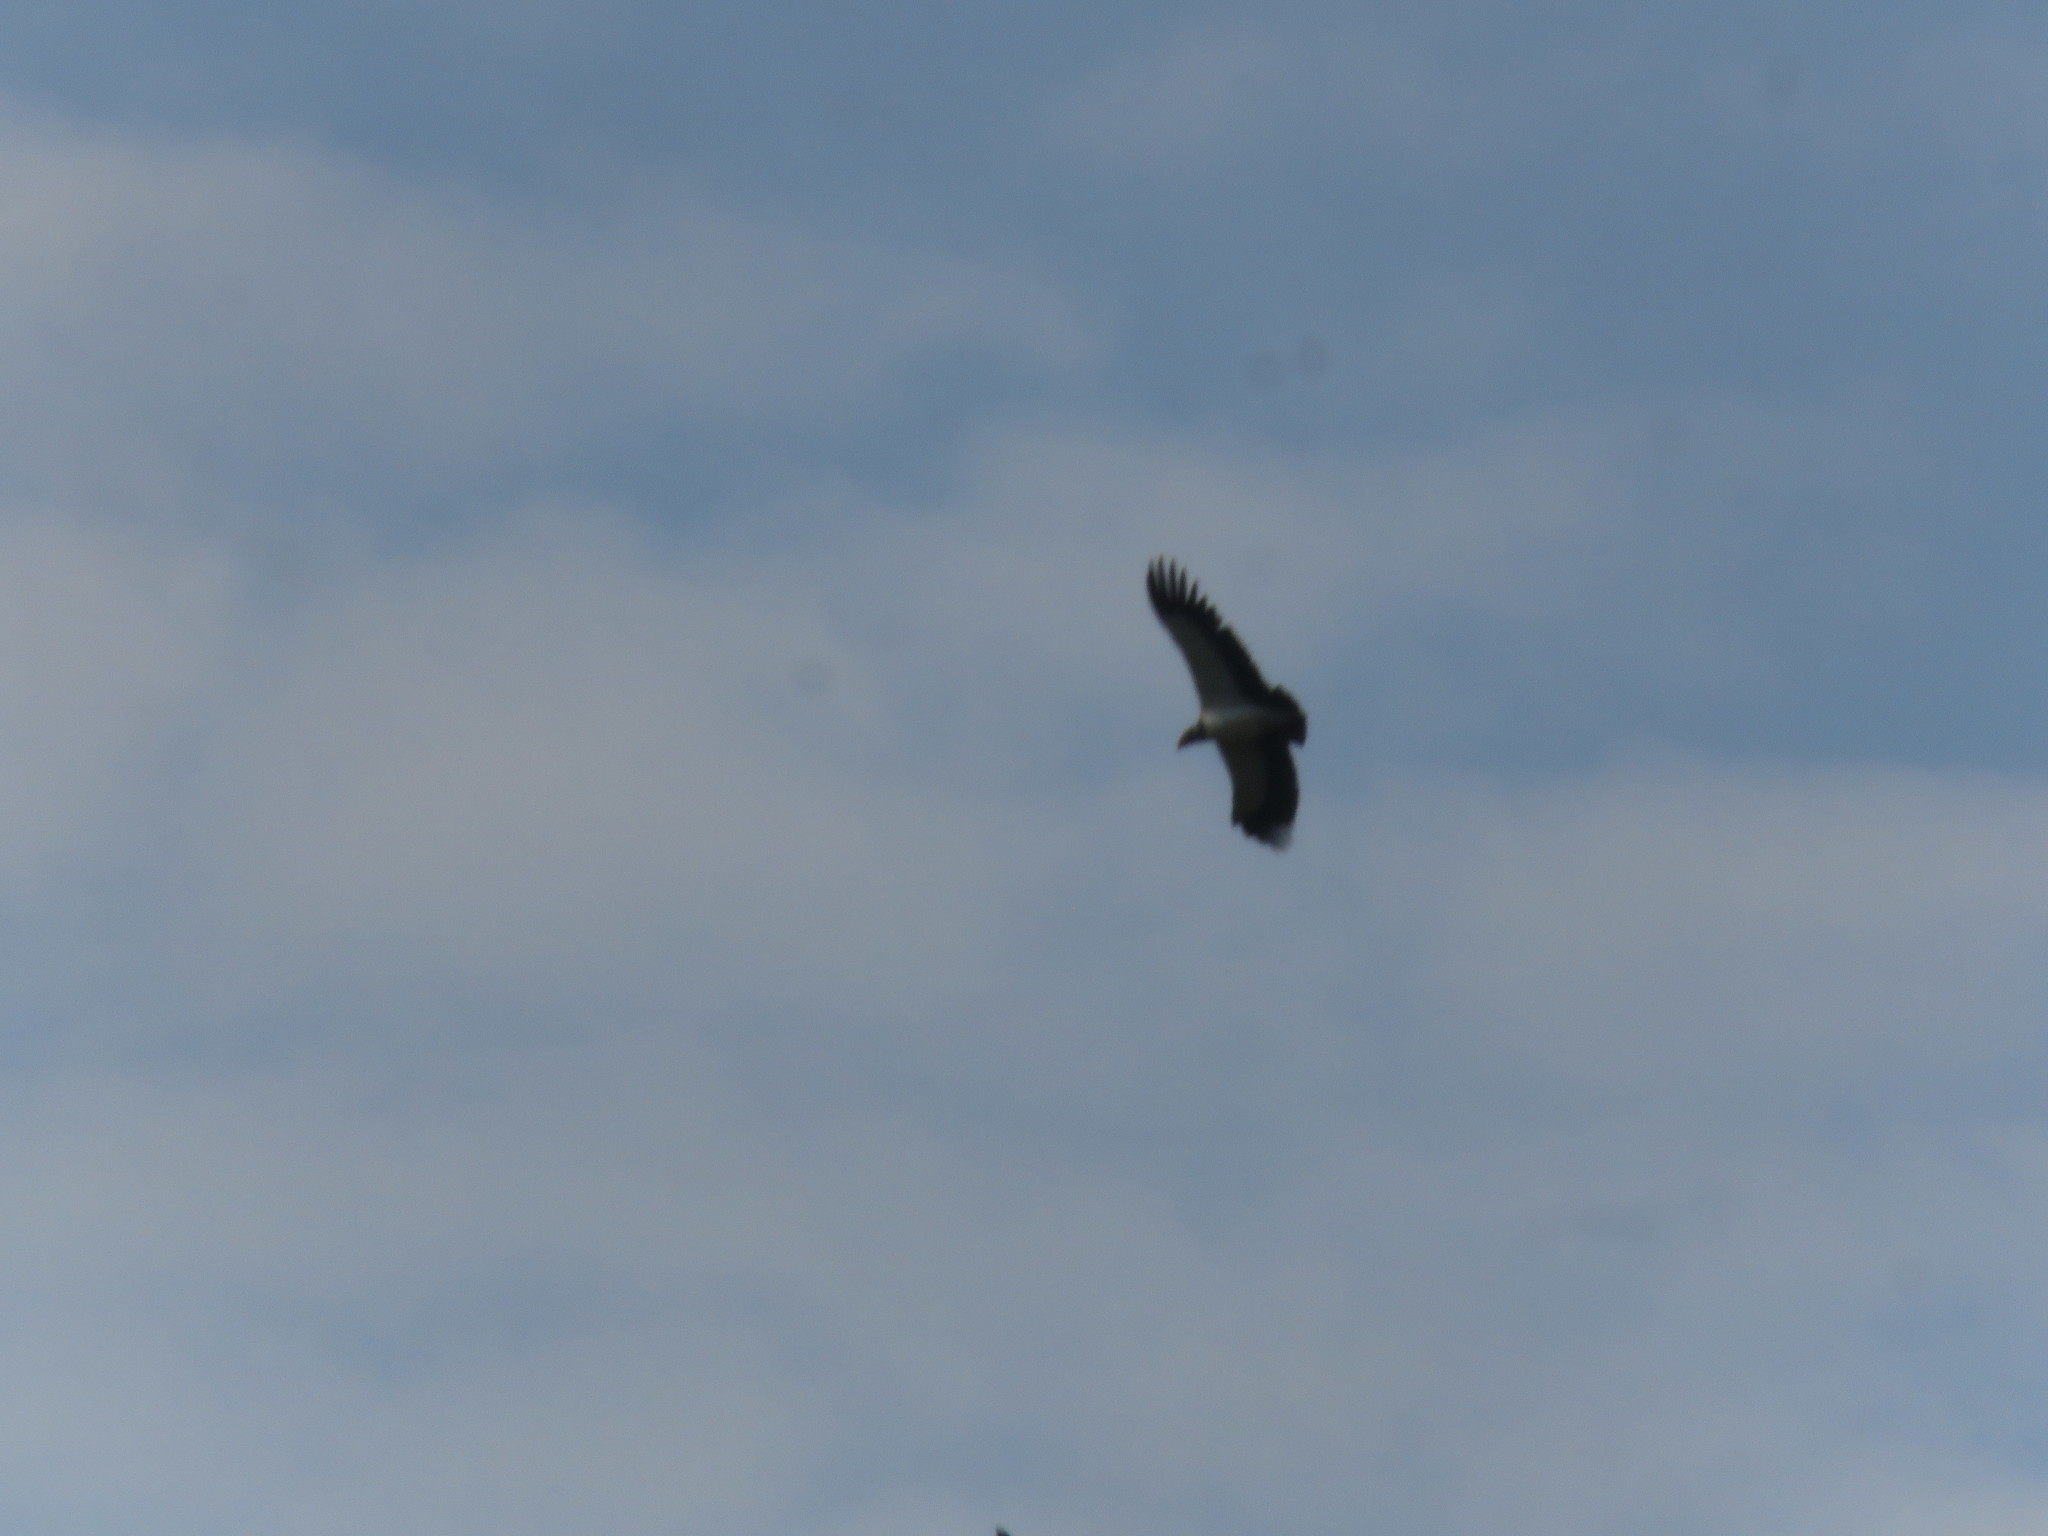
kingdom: Animalia
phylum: Chordata
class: Aves
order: Accipitriformes
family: Cathartidae
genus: Sarcoramphus
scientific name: Sarcoramphus papa
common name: King vulture
